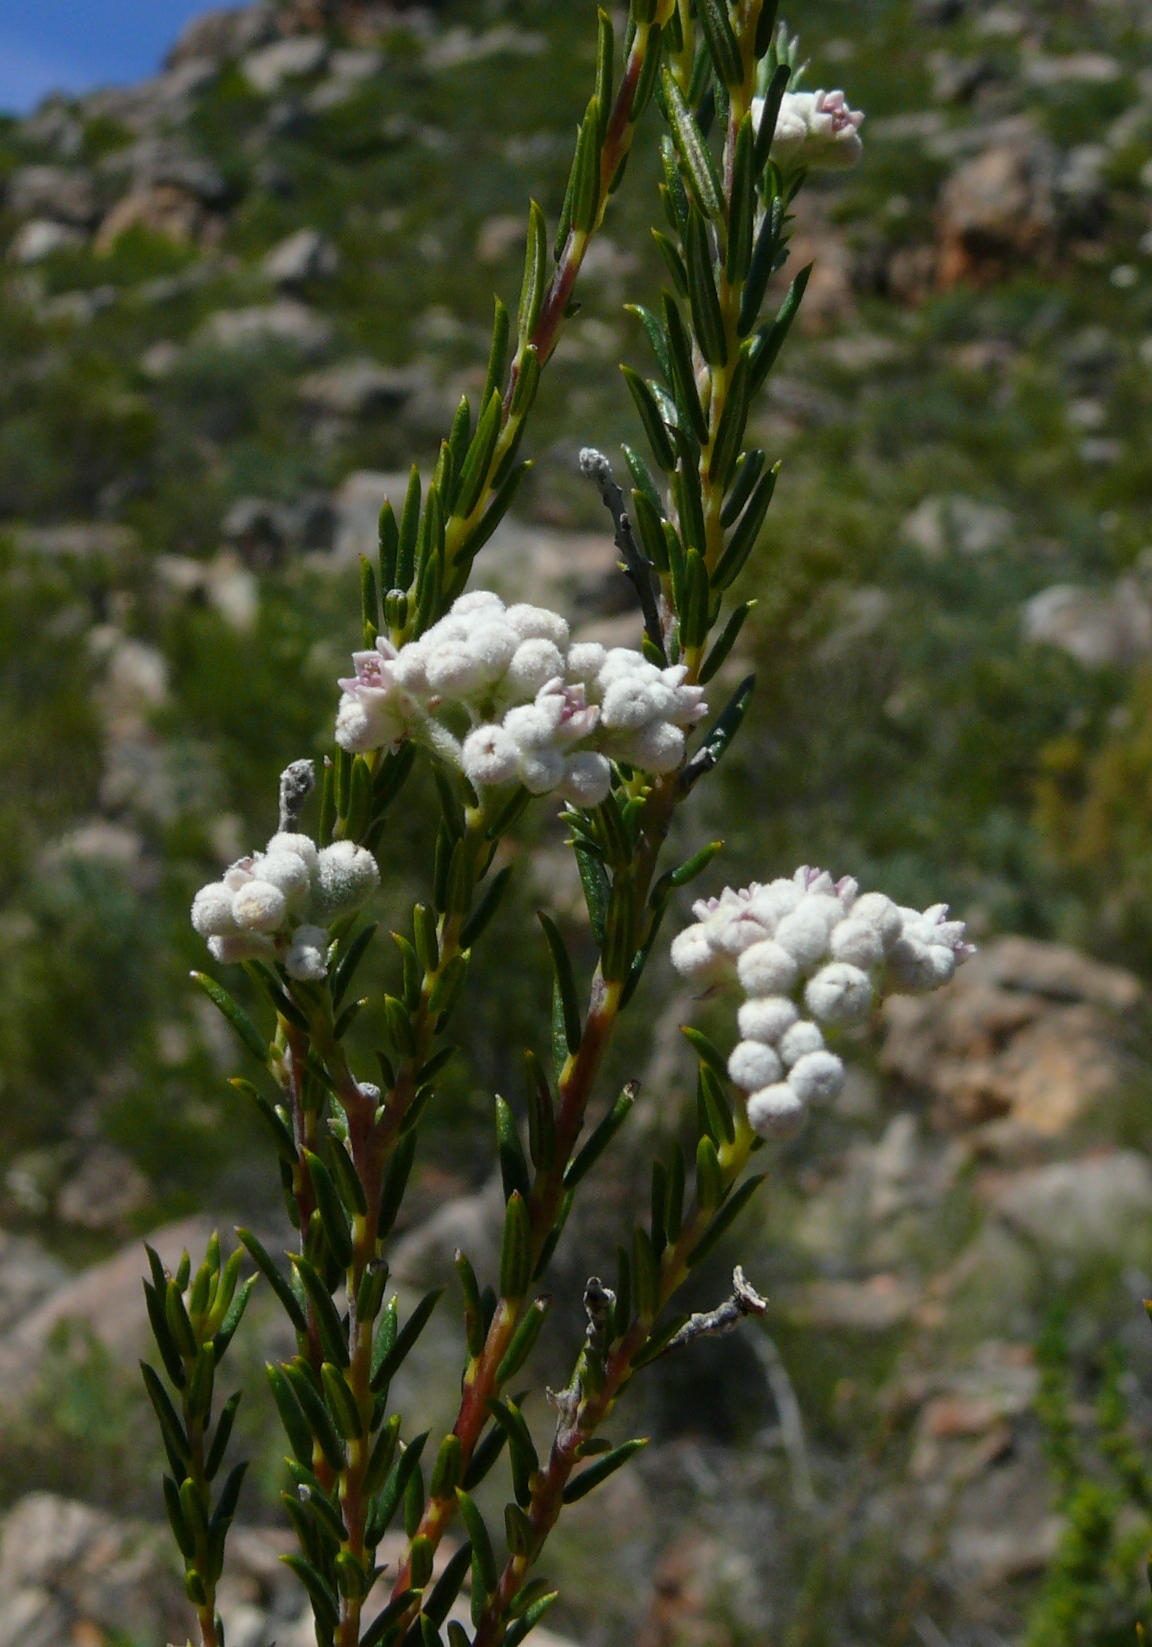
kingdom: Plantae
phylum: Tracheophyta
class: Magnoliopsida
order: Rosales
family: Rhamnaceae
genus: Phylica
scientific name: Phylica cryptandroides
